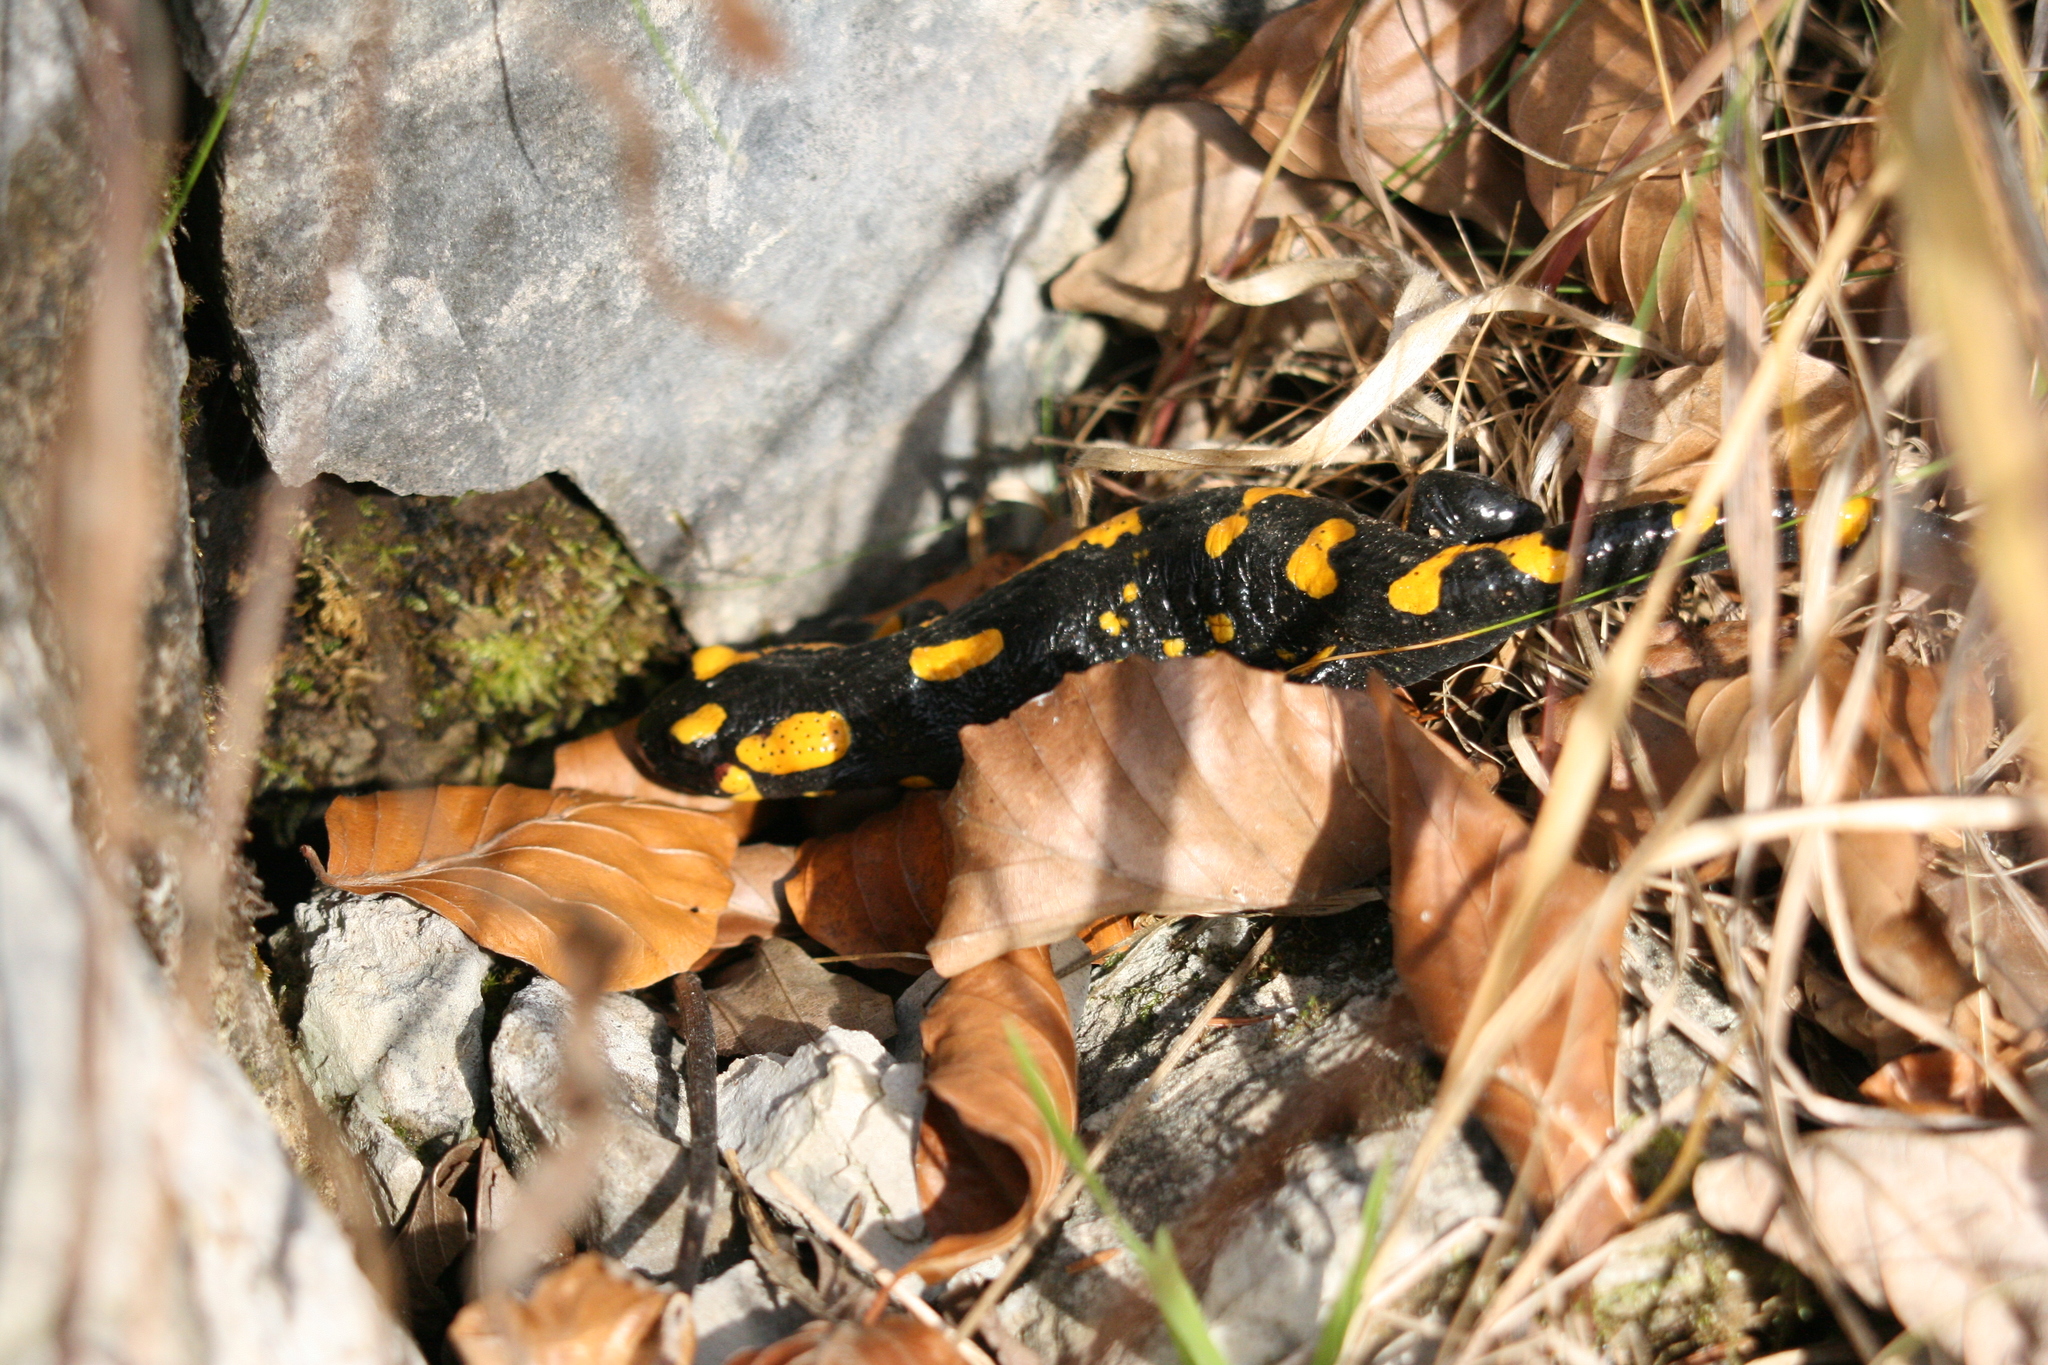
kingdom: Animalia
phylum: Chordata
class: Amphibia
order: Caudata
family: Salamandridae
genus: Salamandra
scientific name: Salamandra salamandra
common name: Fire salamander
